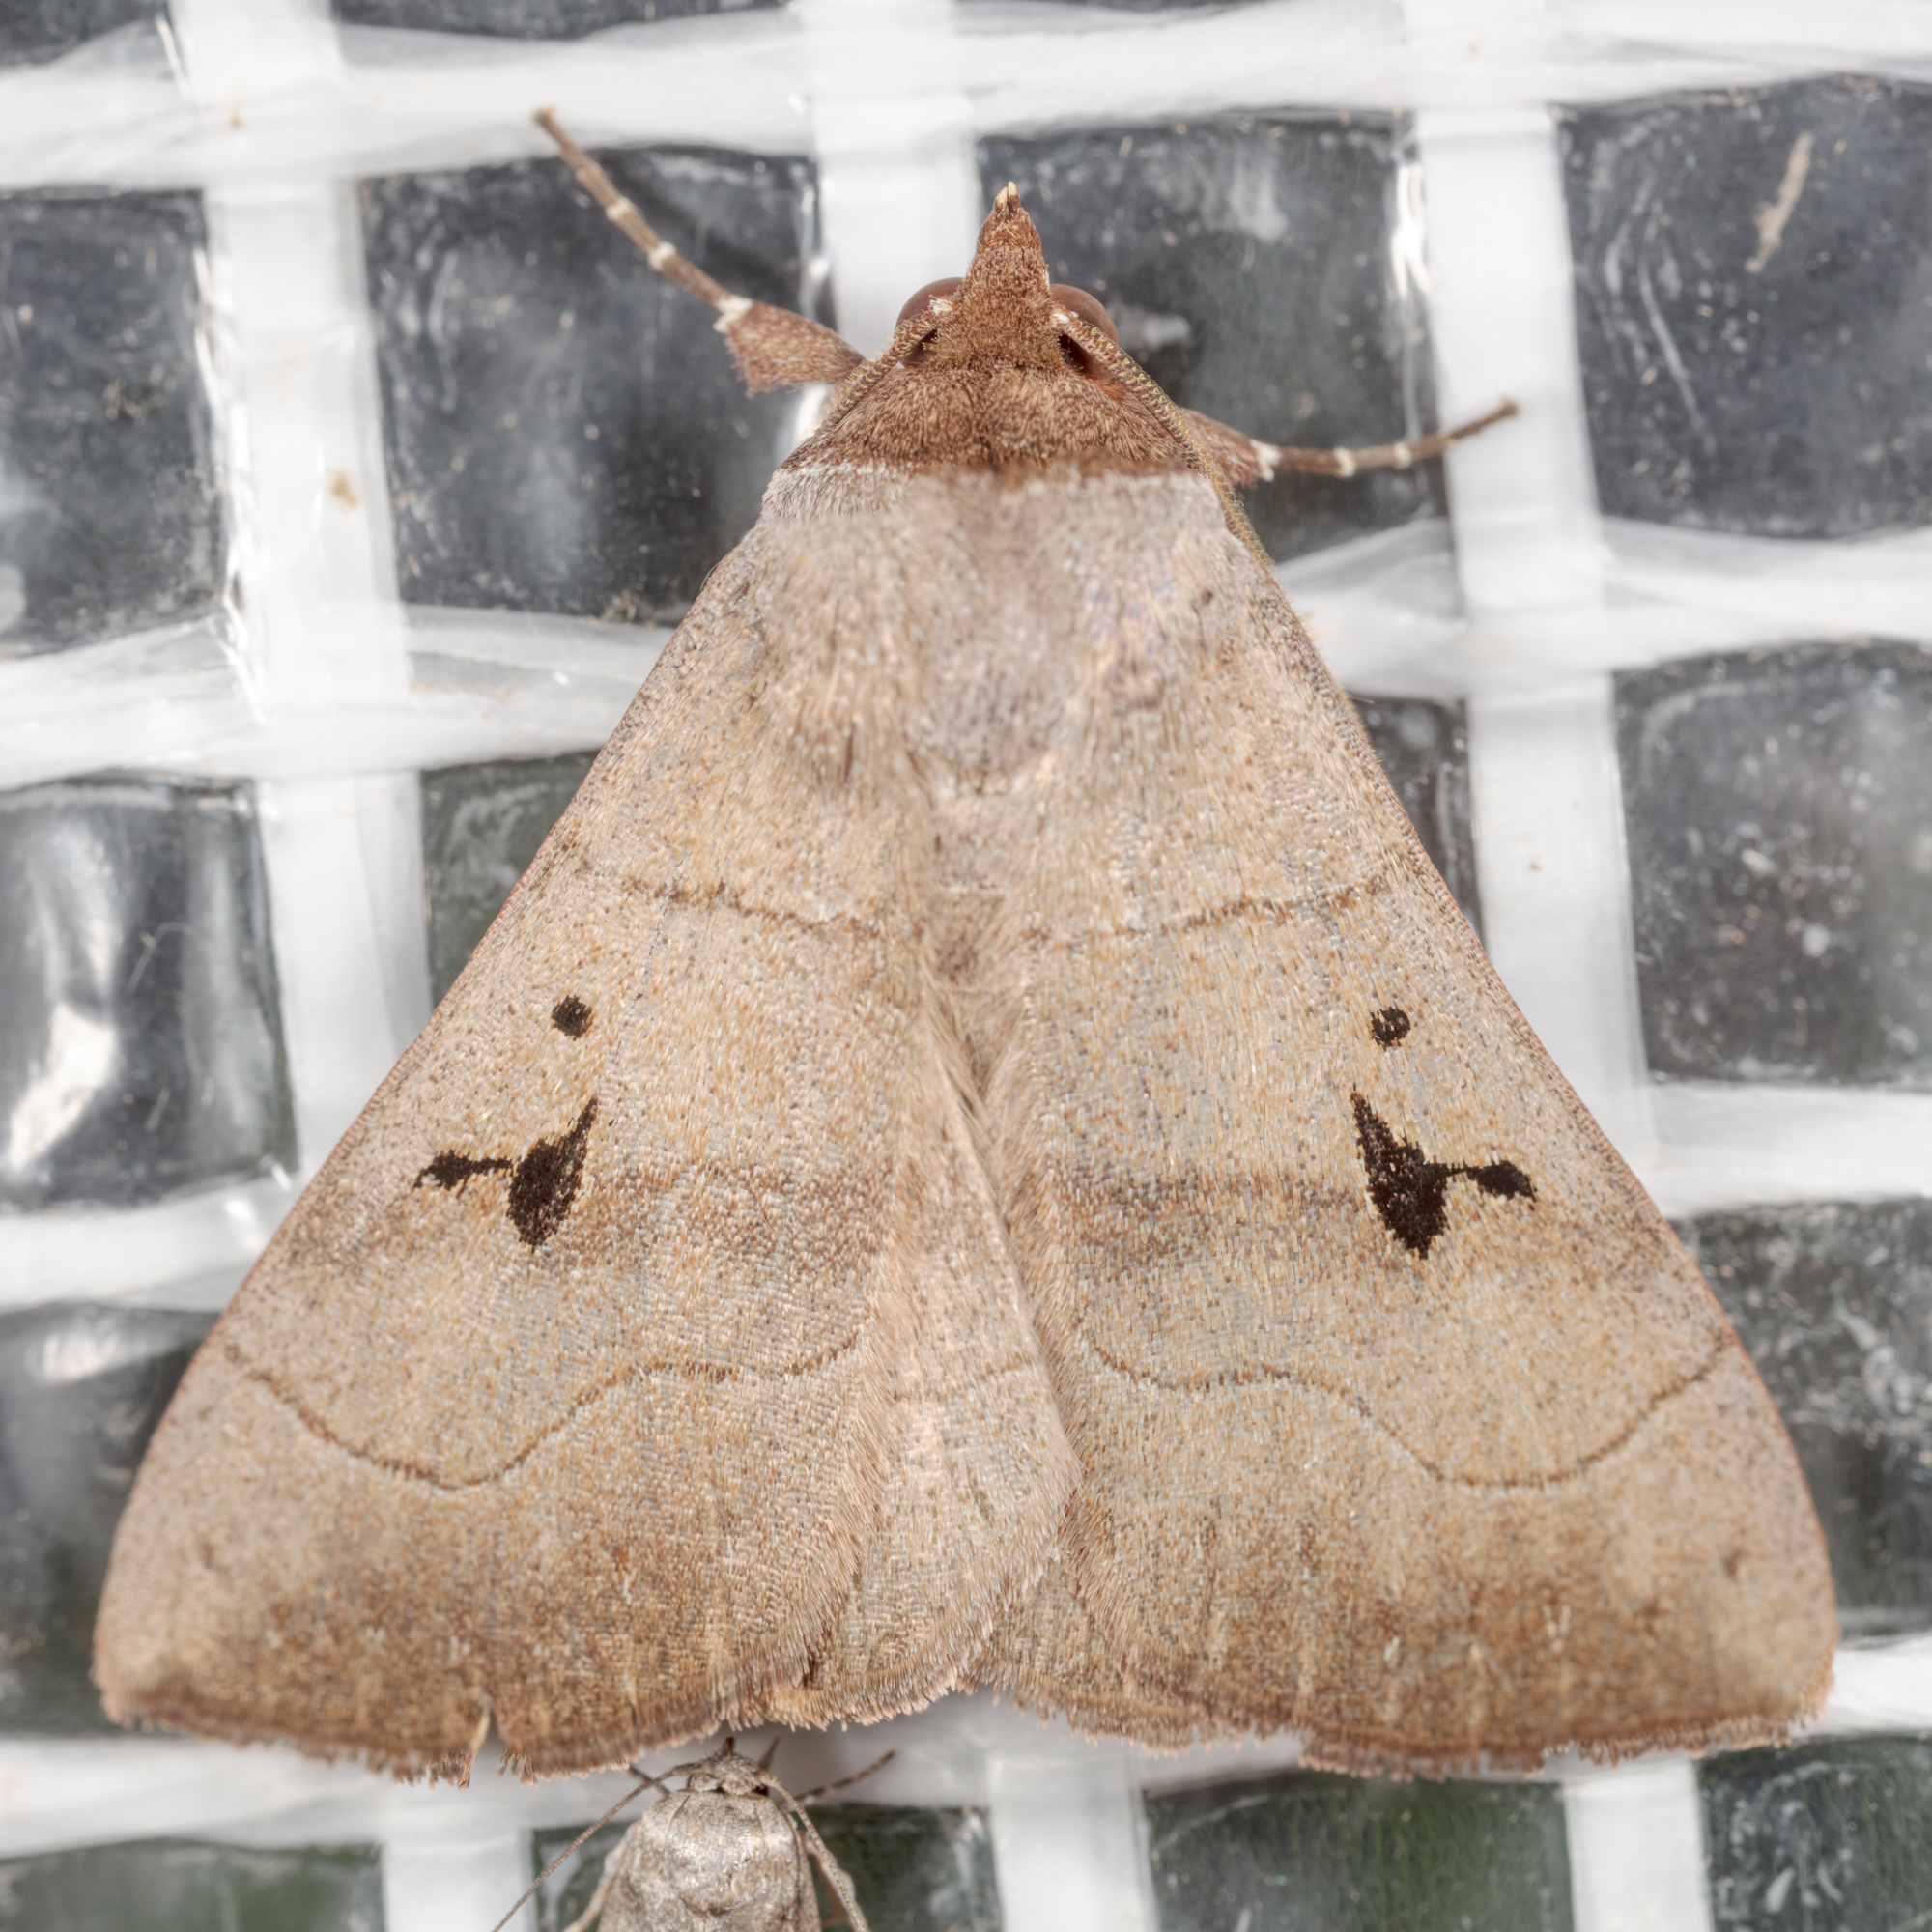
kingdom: Animalia
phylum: Arthropoda
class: Insecta
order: Lepidoptera
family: Erebidae
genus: Panopoda
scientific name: Panopoda carneicosta
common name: Brown panopoda moth
